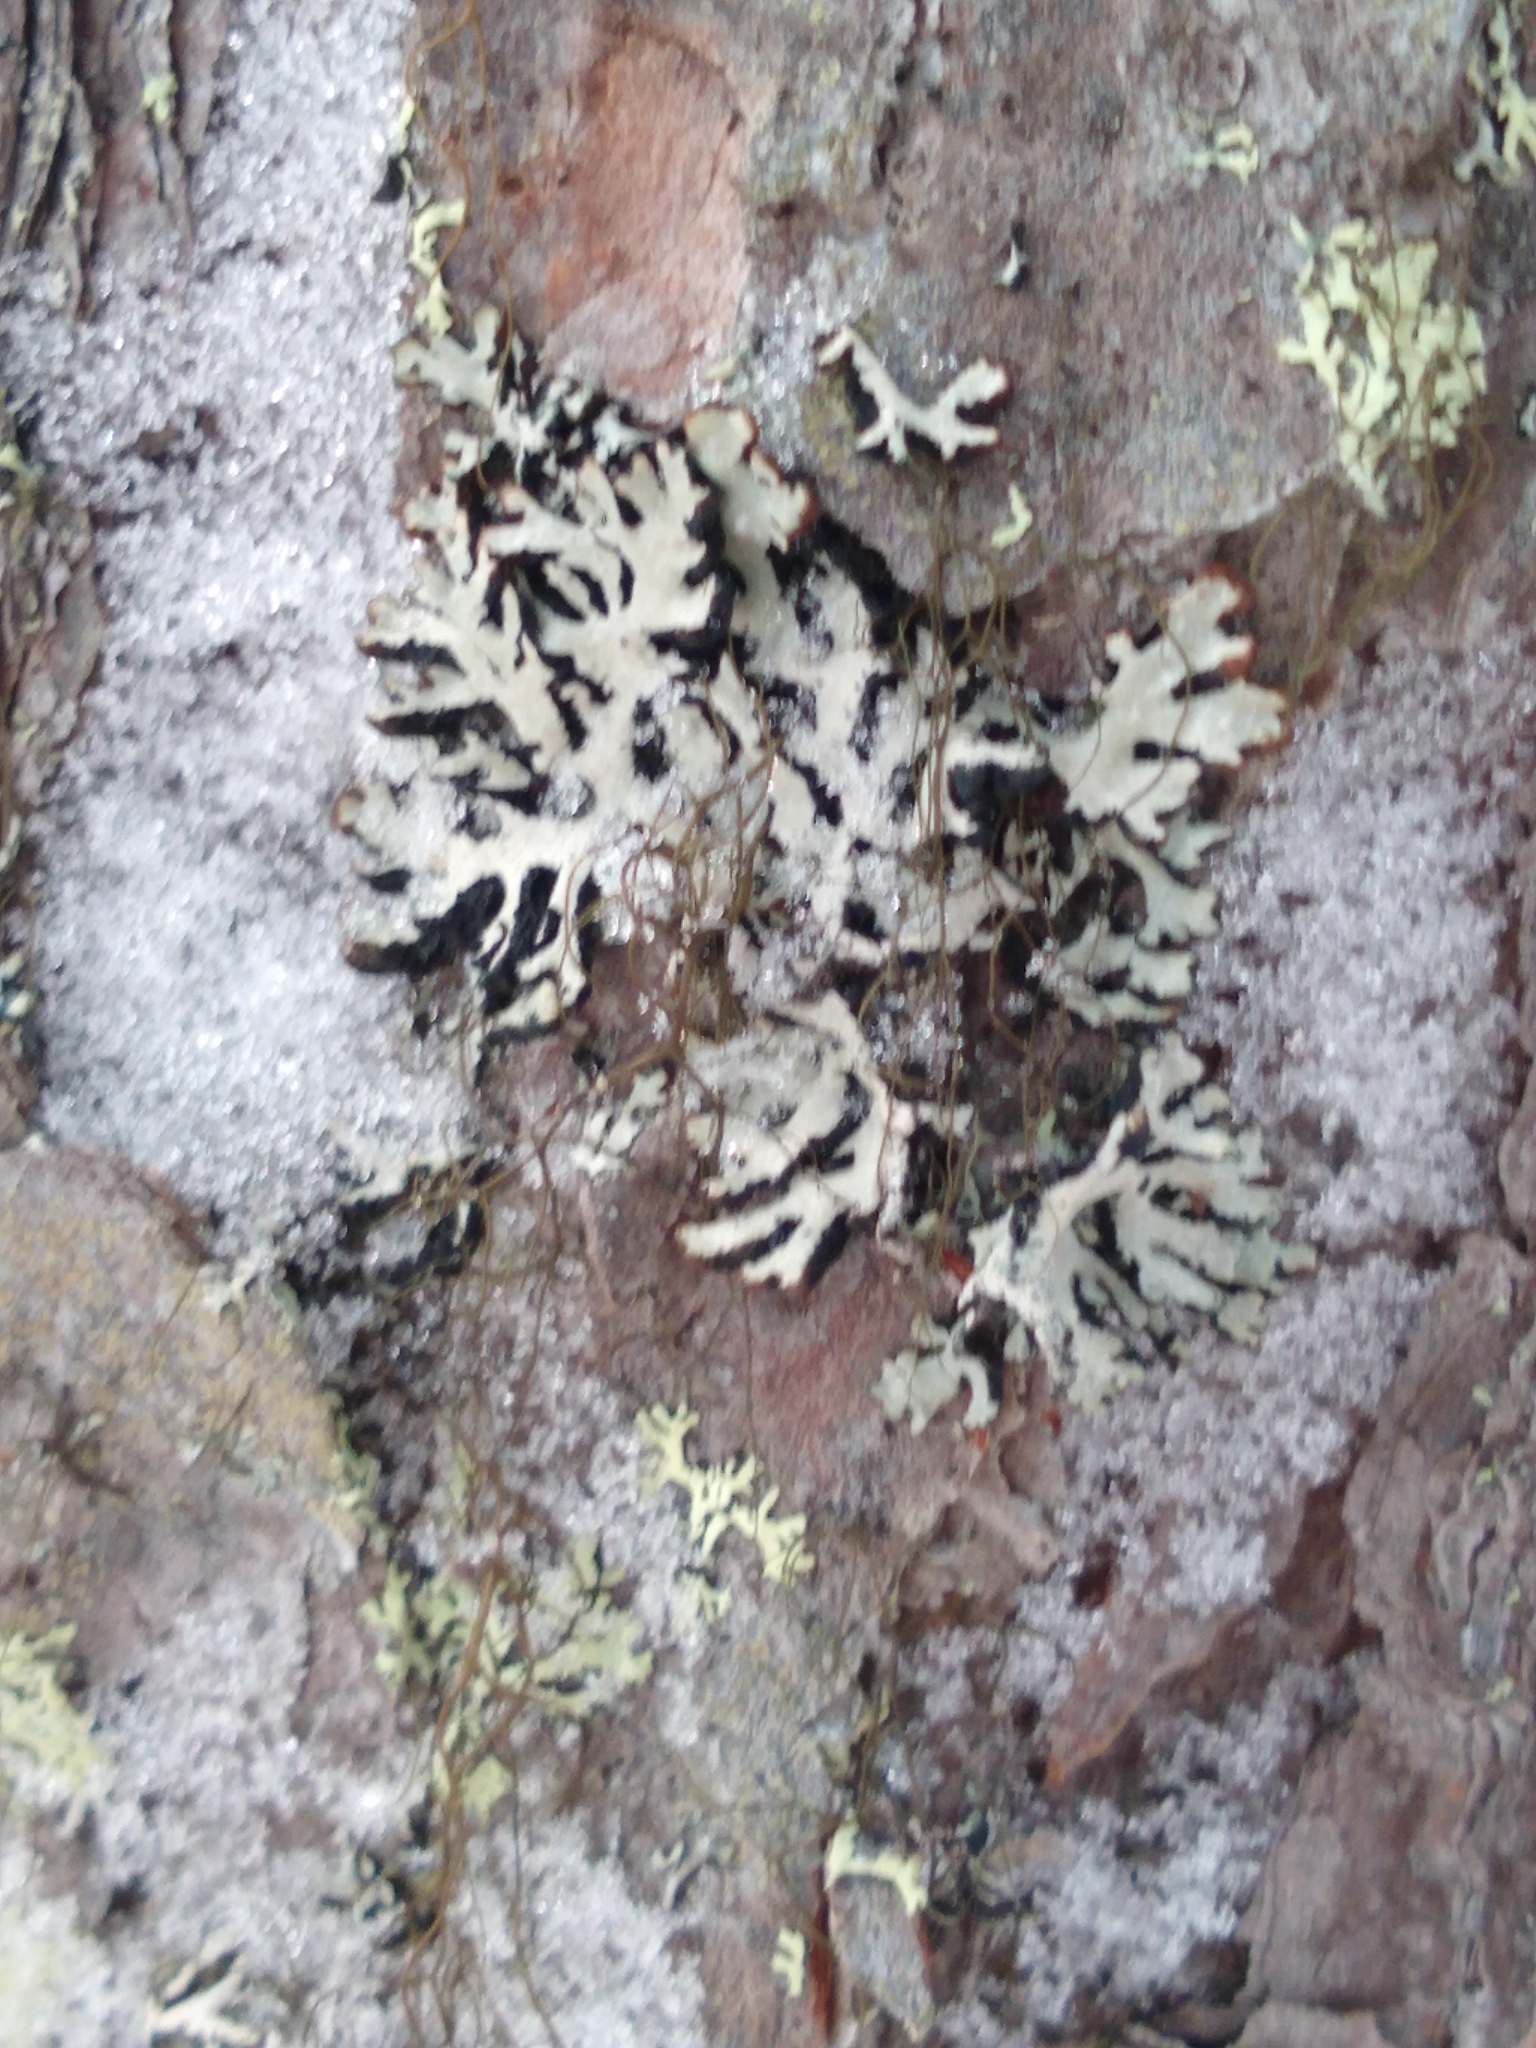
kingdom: Fungi
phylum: Ascomycota
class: Lecanoromycetes
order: Lecanorales
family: Parmeliaceae
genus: Hypogymnia
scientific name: Hypogymnia physodes
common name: Dark crottle
